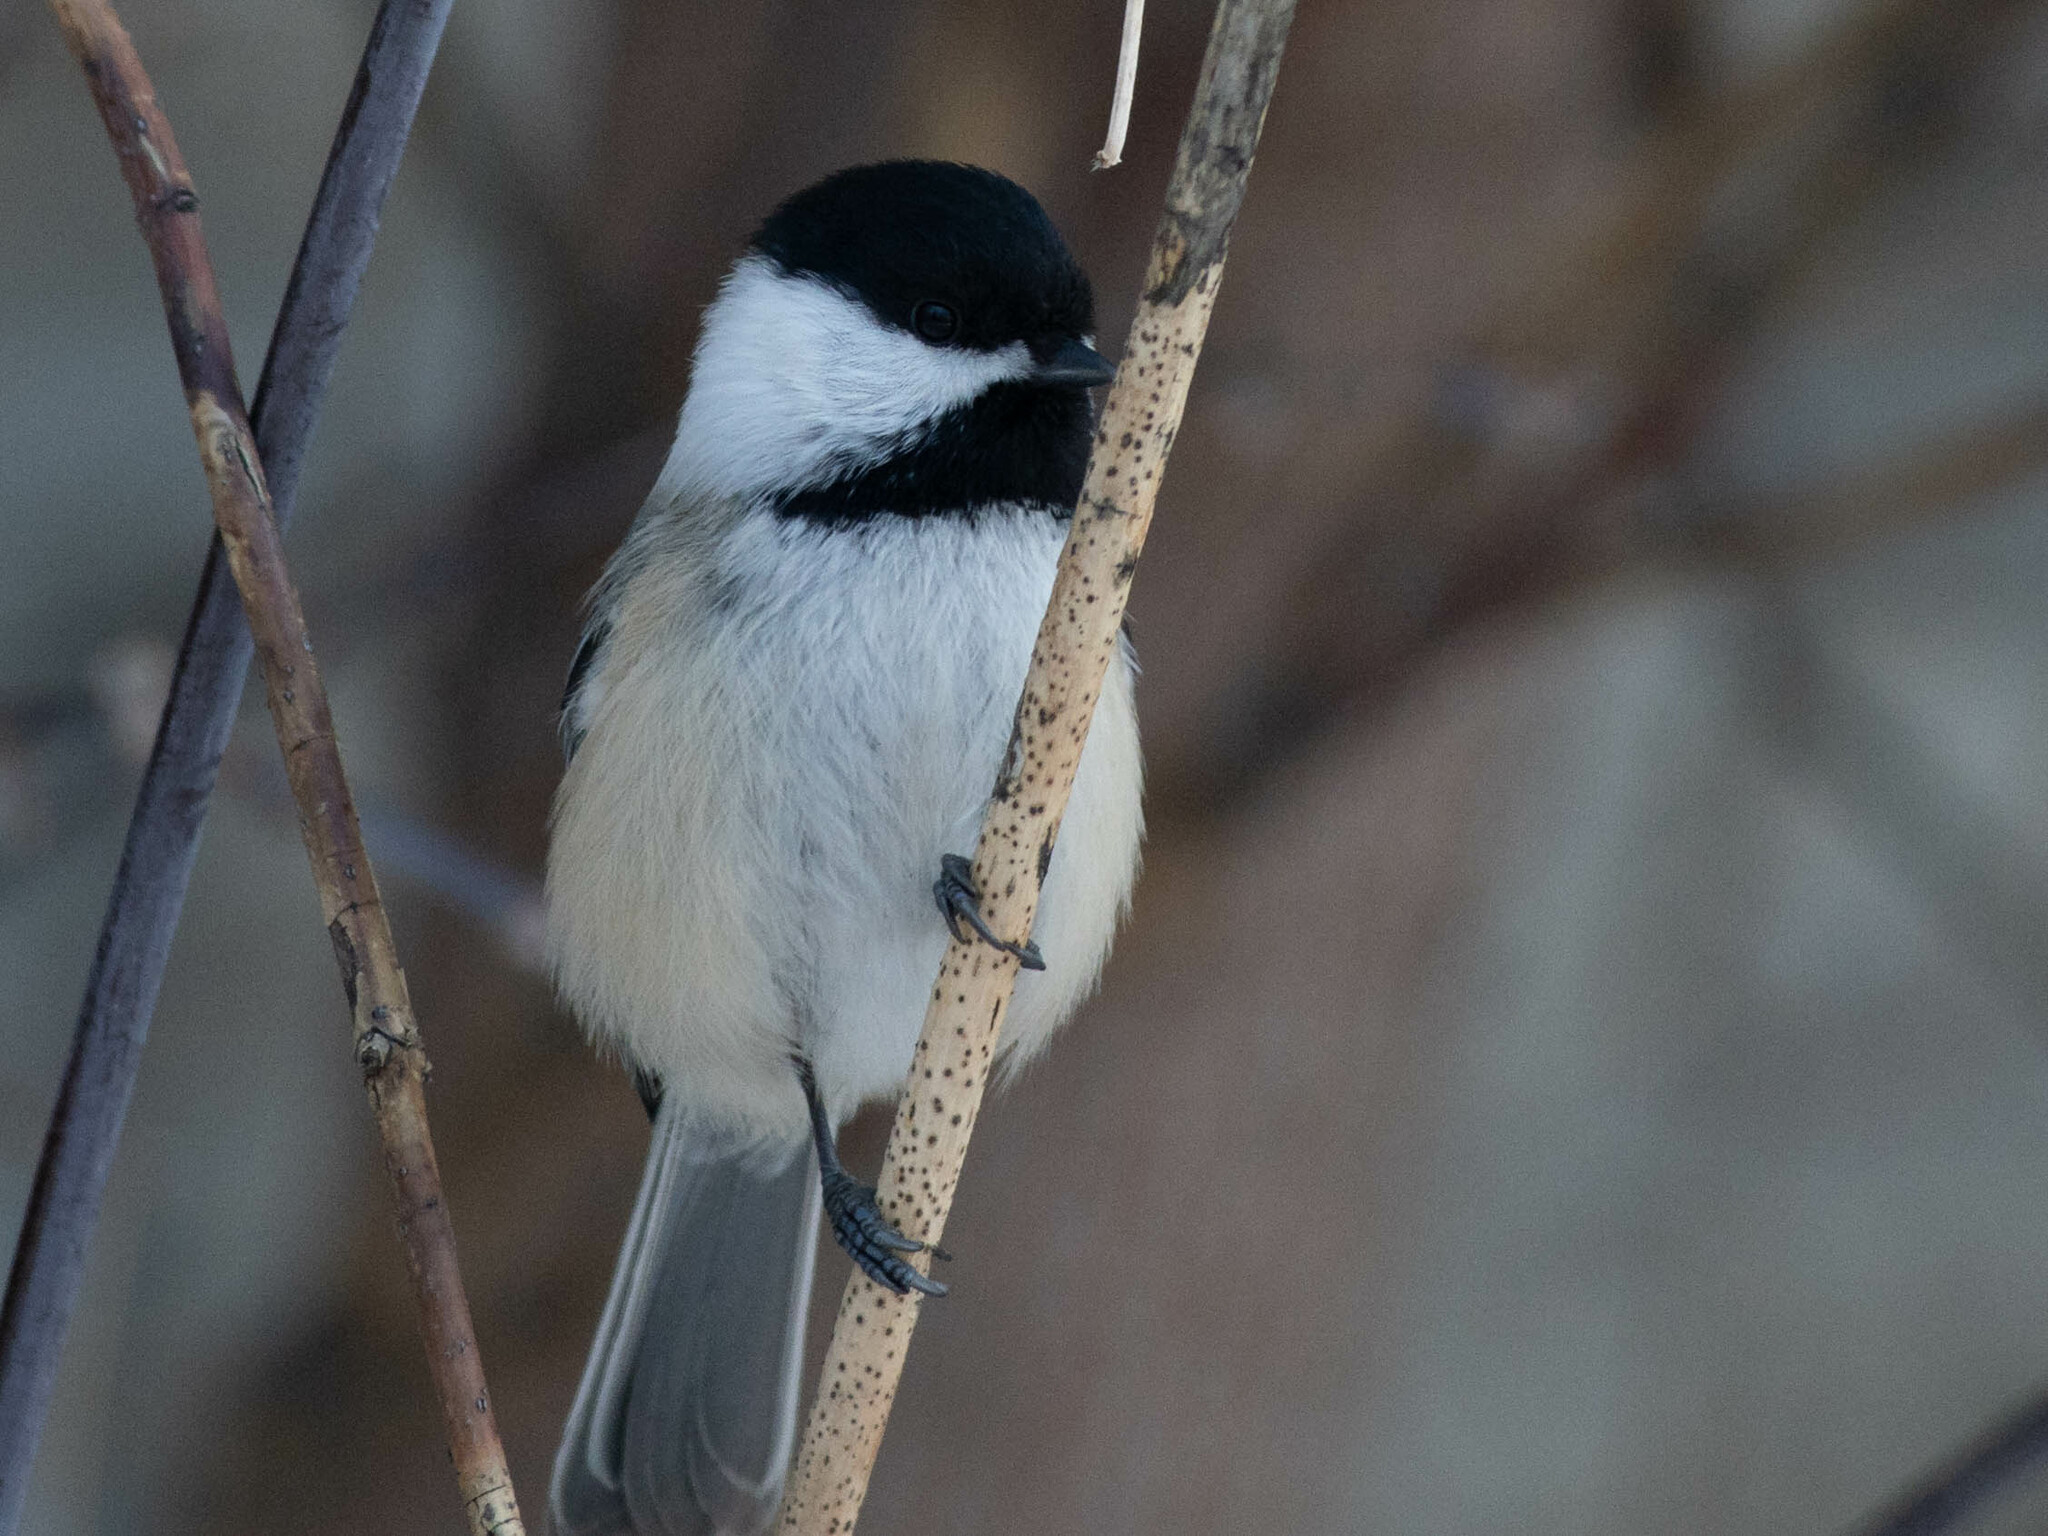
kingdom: Animalia
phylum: Chordata
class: Aves
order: Passeriformes
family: Paridae
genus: Poecile
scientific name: Poecile atricapillus
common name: Black-capped chickadee
